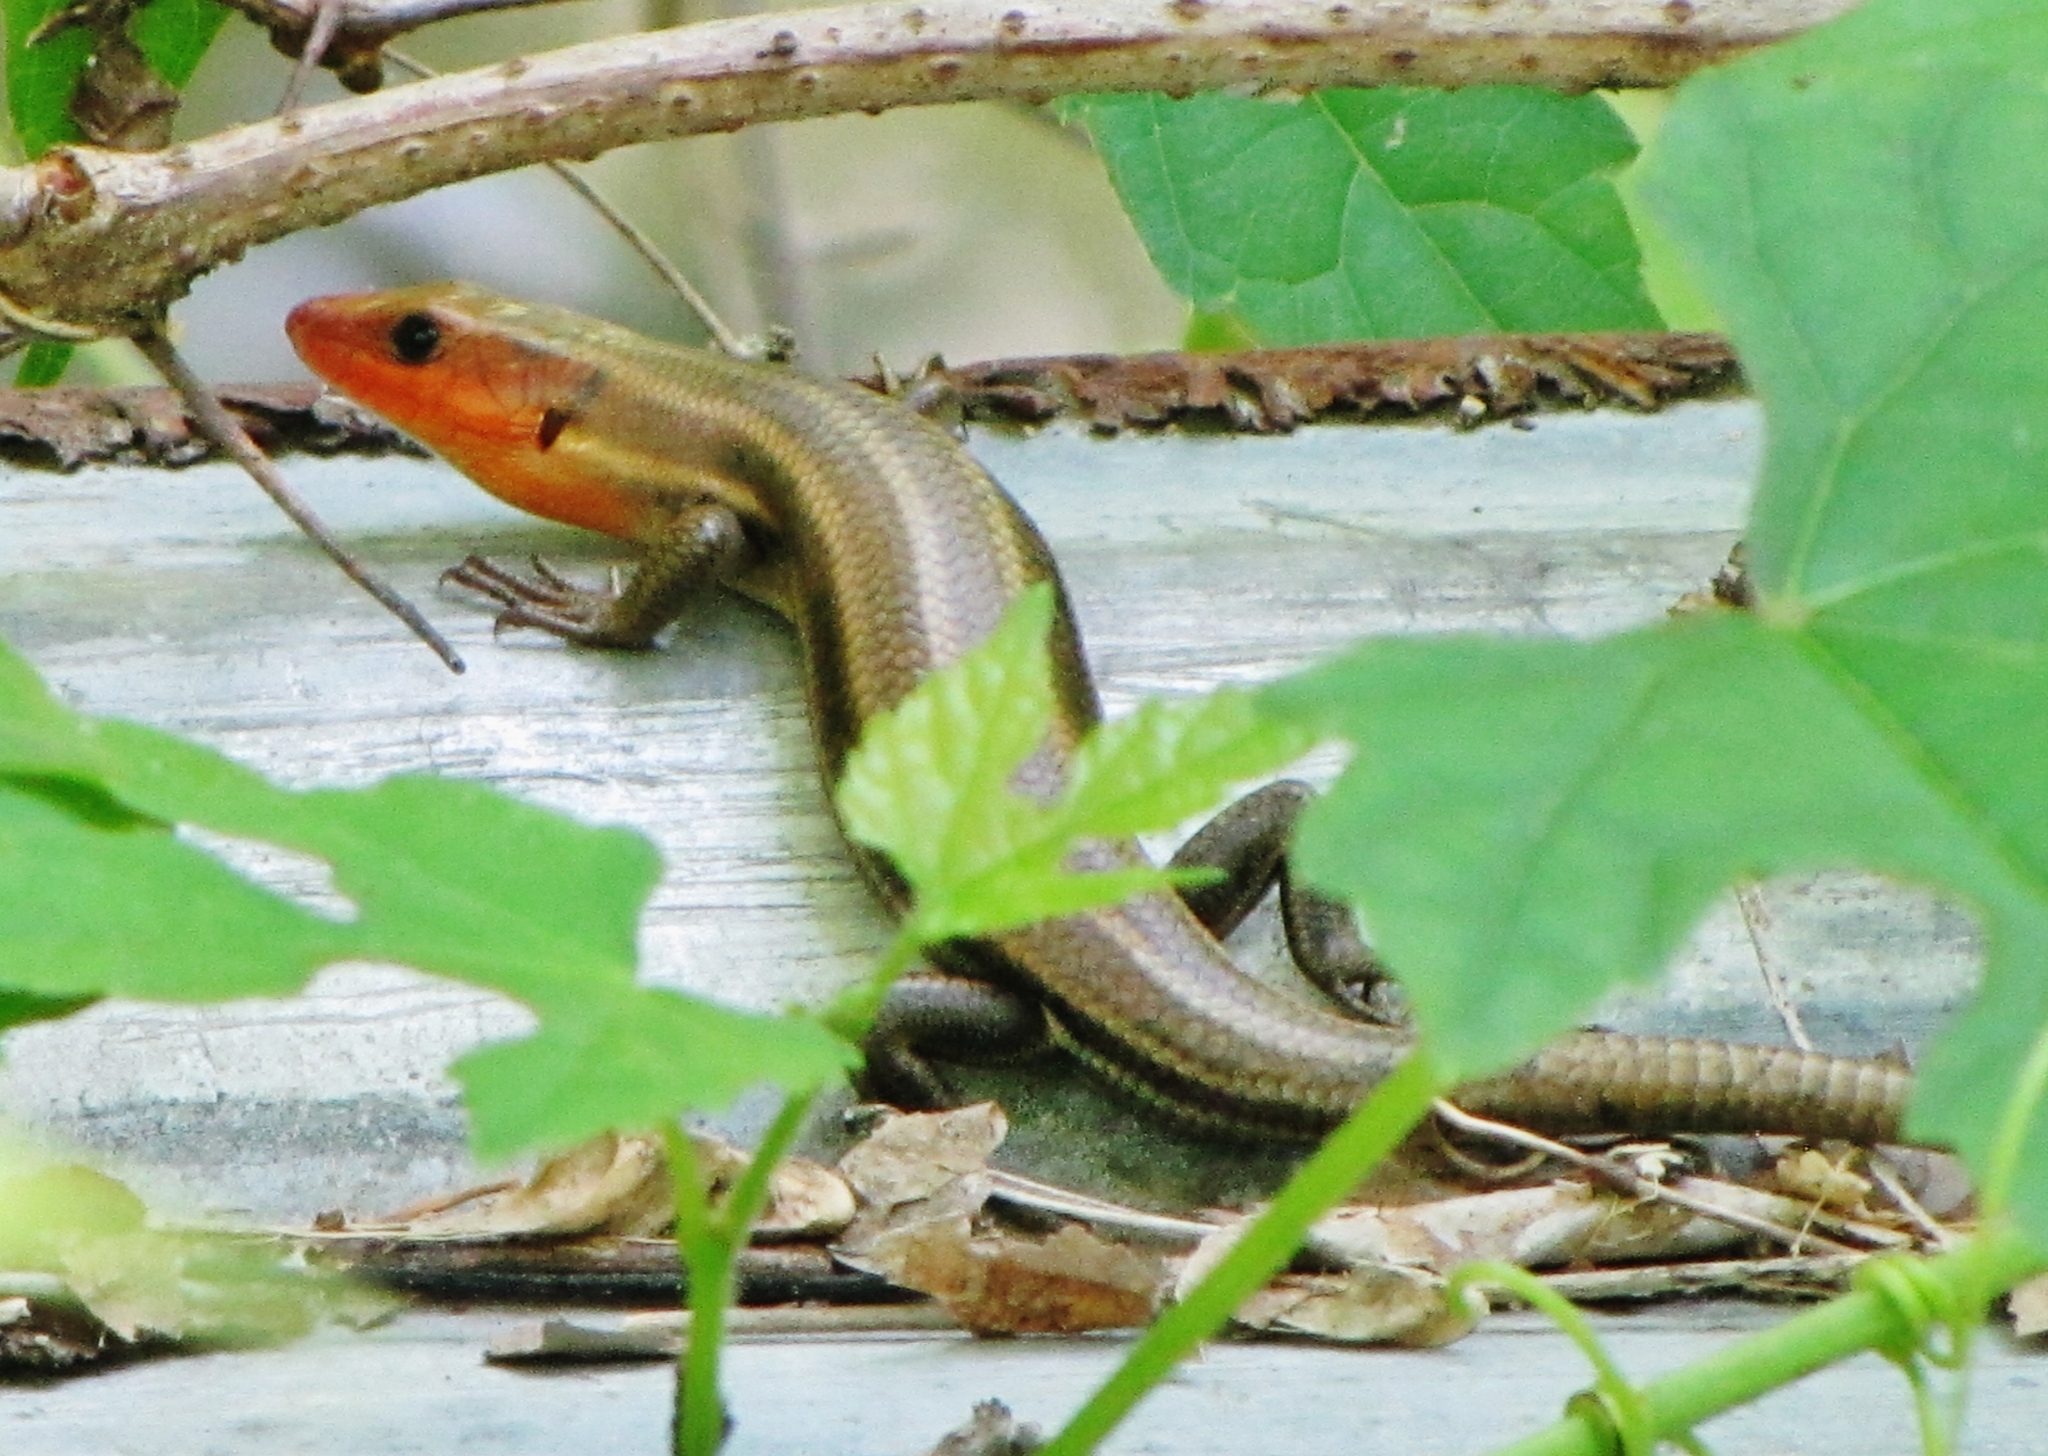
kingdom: Animalia
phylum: Chordata
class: Squamata
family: Scincidae
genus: Plestiodon
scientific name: Plestiodon fasciatus
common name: Five-lined skink
